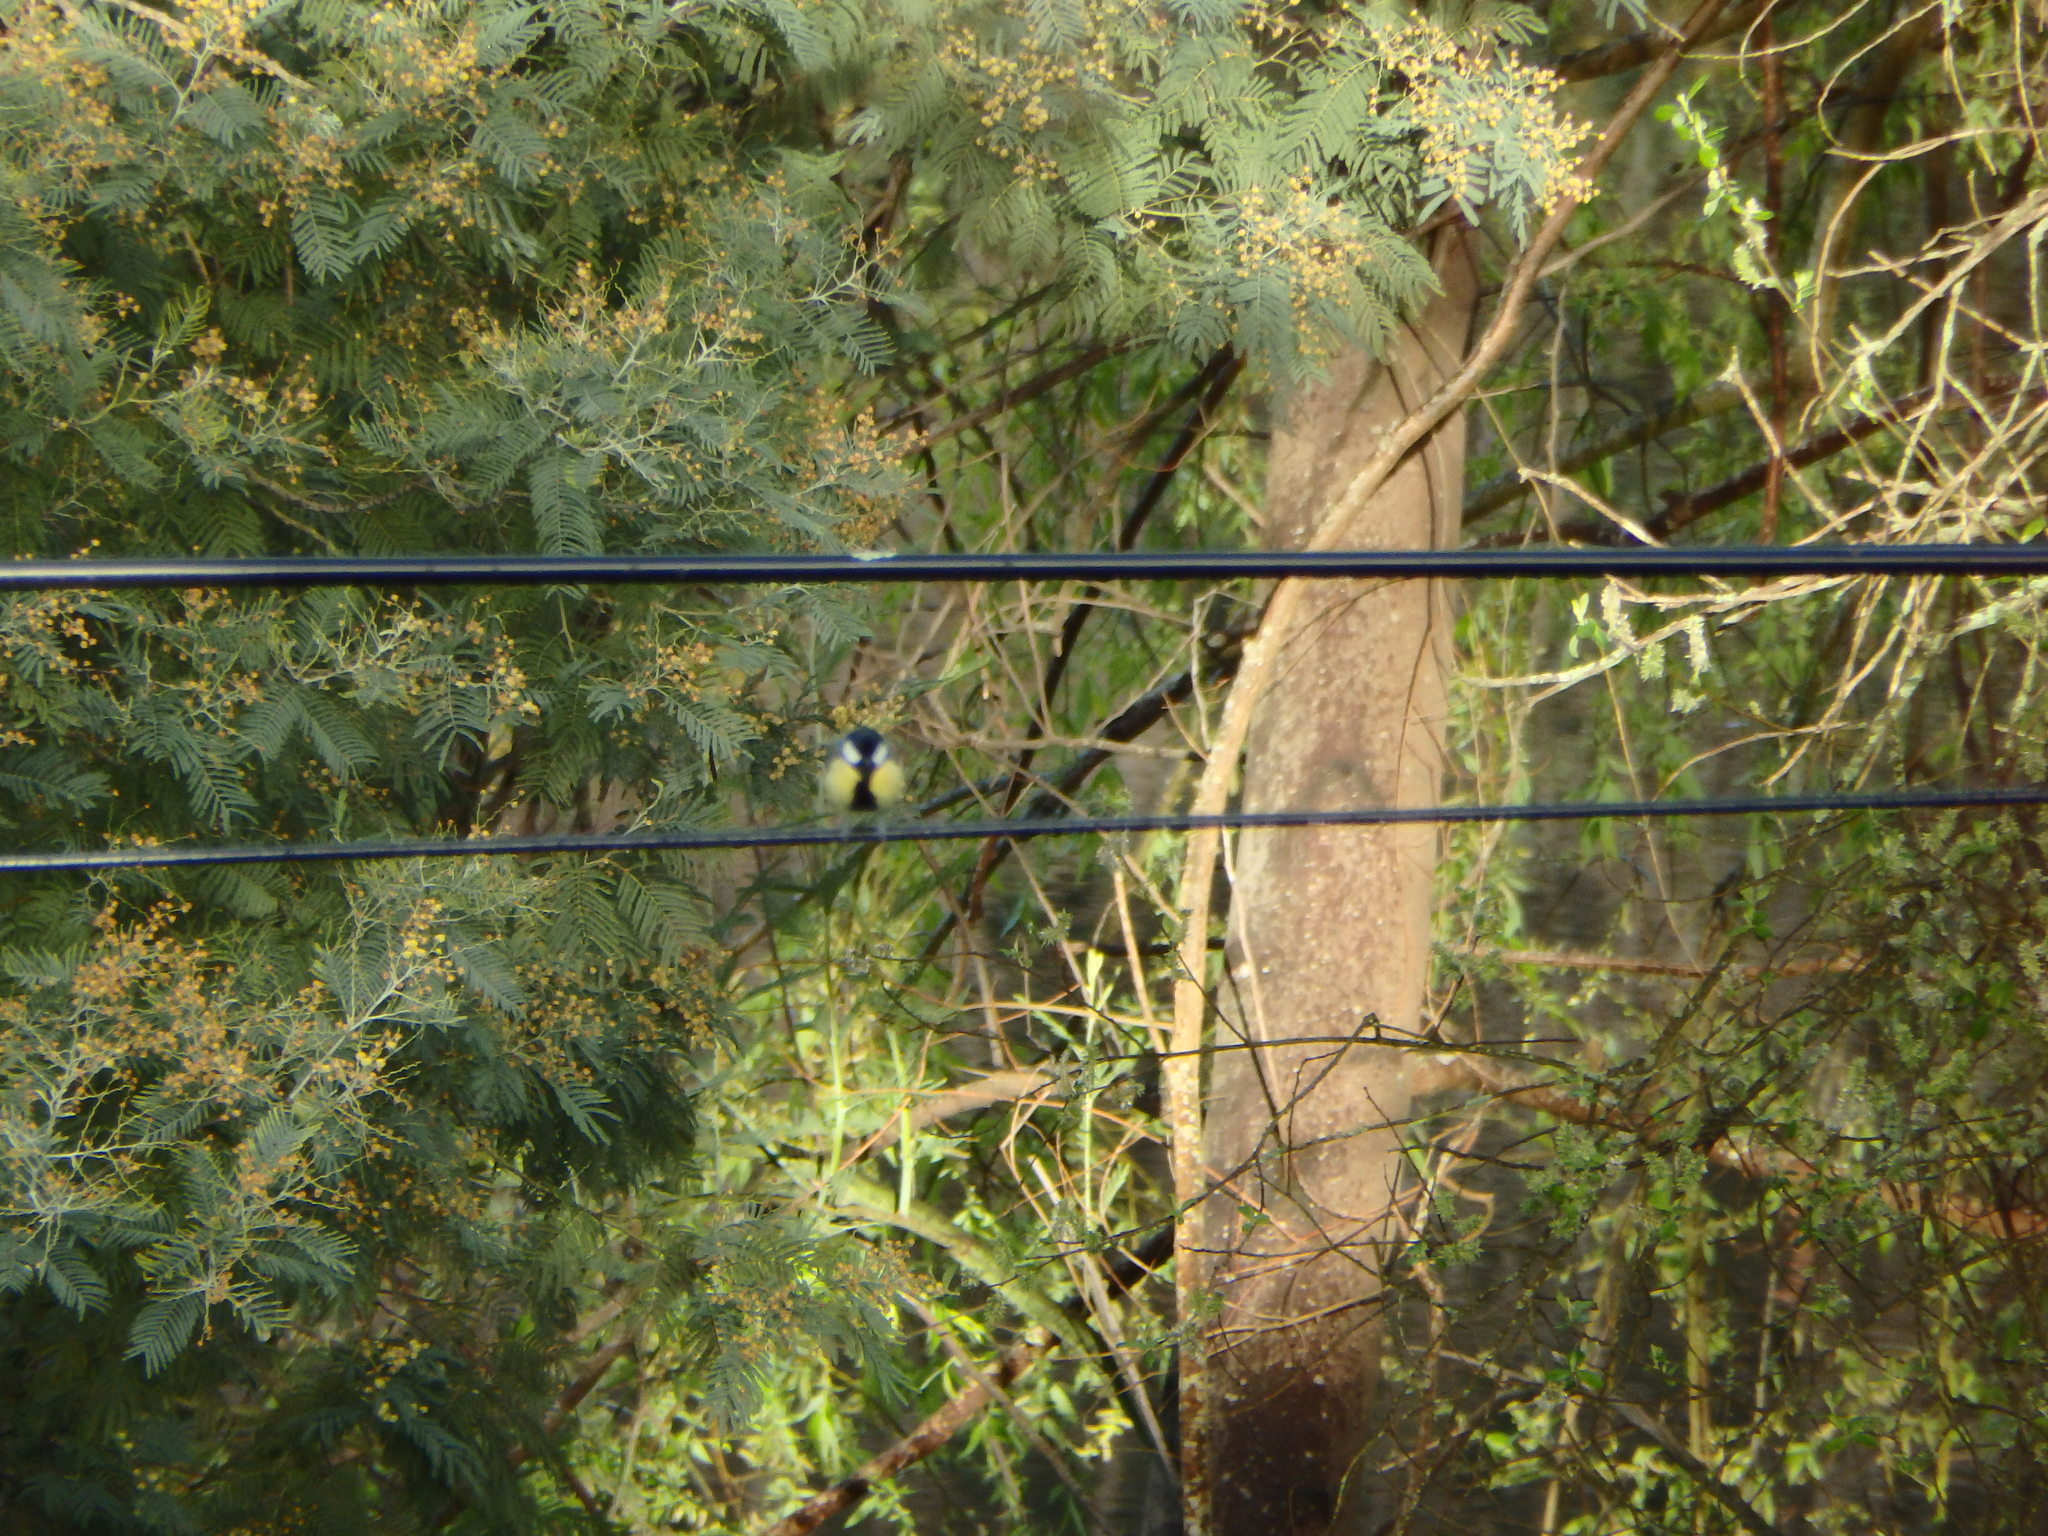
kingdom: Animalia
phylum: Chordata
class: Aves
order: Passeriformes
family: Paridae
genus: Parus
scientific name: Parus major
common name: Great tit
